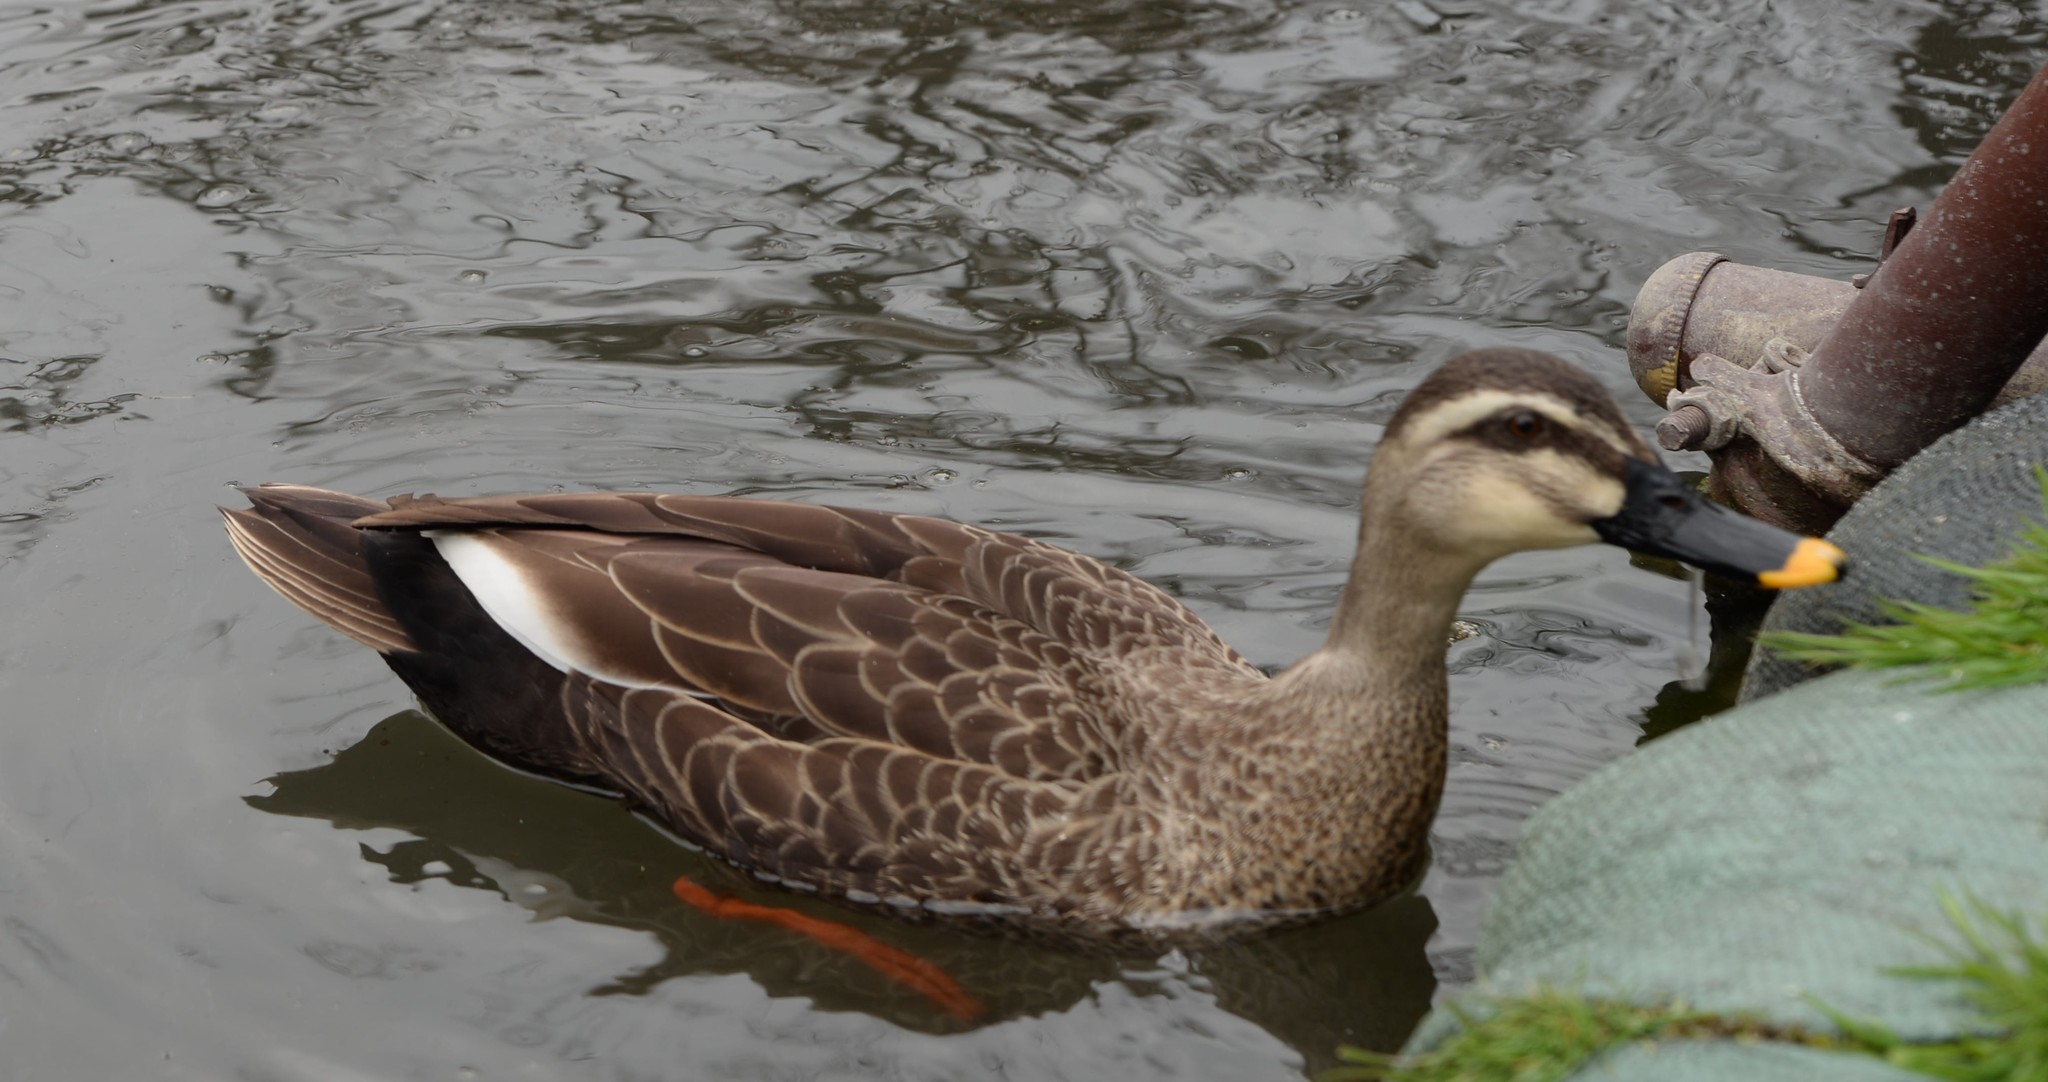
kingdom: Animalia
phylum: Chordata
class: Aves
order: Anseriformes
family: Anatidae
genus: Anas
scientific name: Anas zonorhyncha
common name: Eastern spot-billed duck
